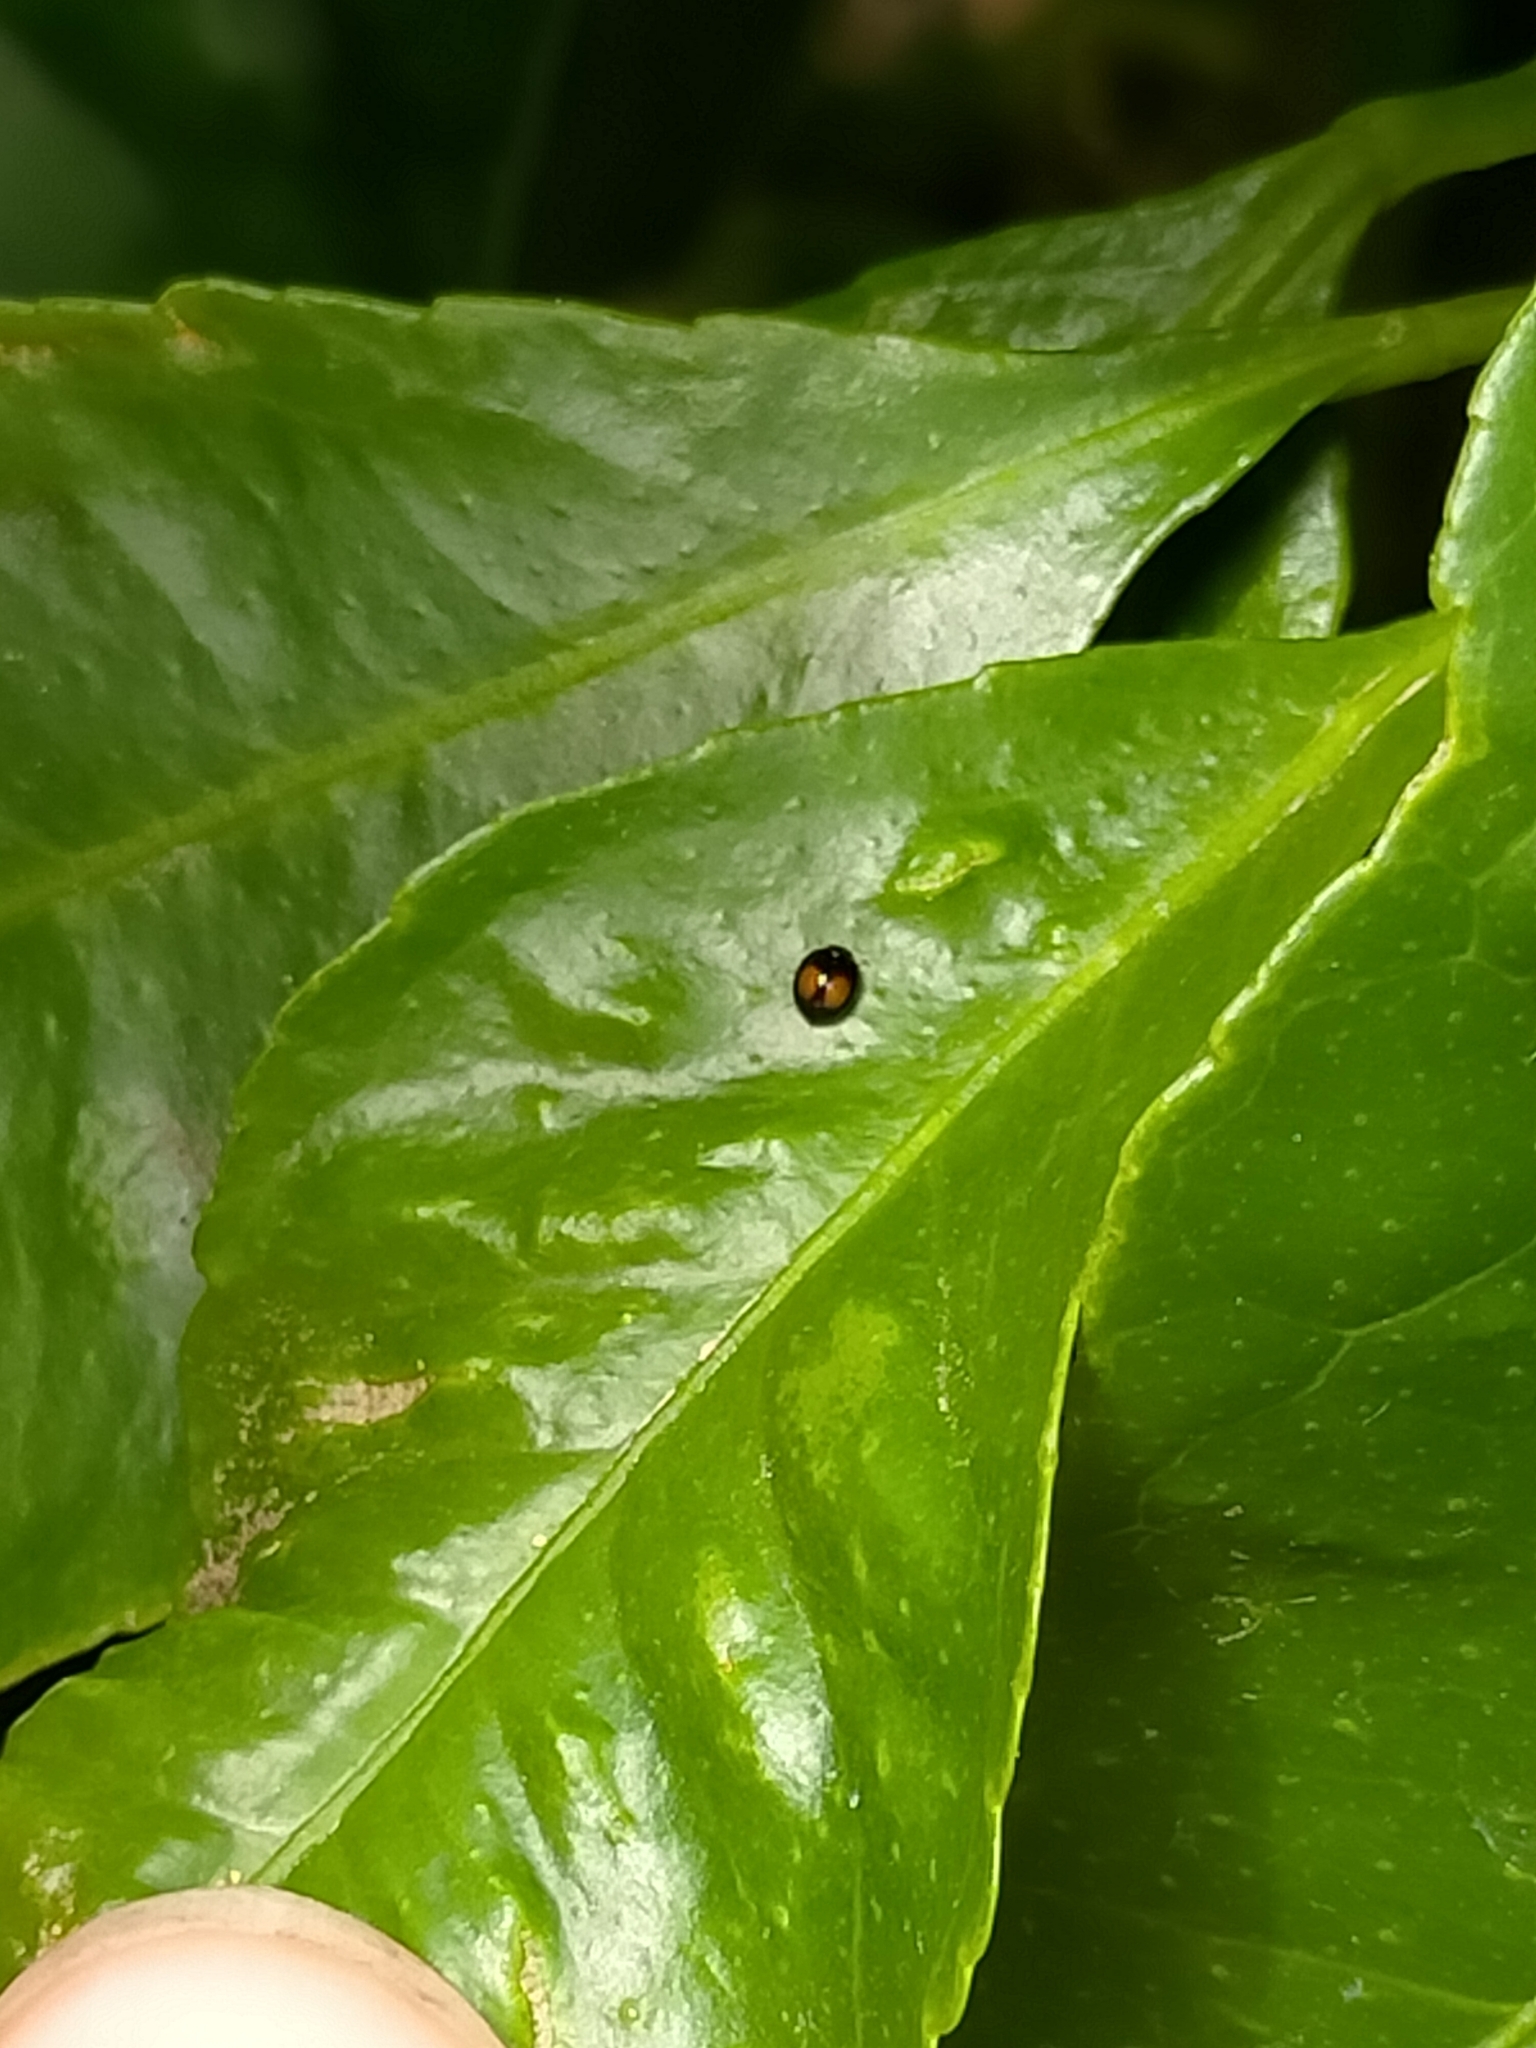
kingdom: Animalia
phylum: Arthropoda
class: Insecta
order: Coleoptera
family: Coccinellidae
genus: Serangium
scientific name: Serangium maculigerum
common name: Lady beetle
